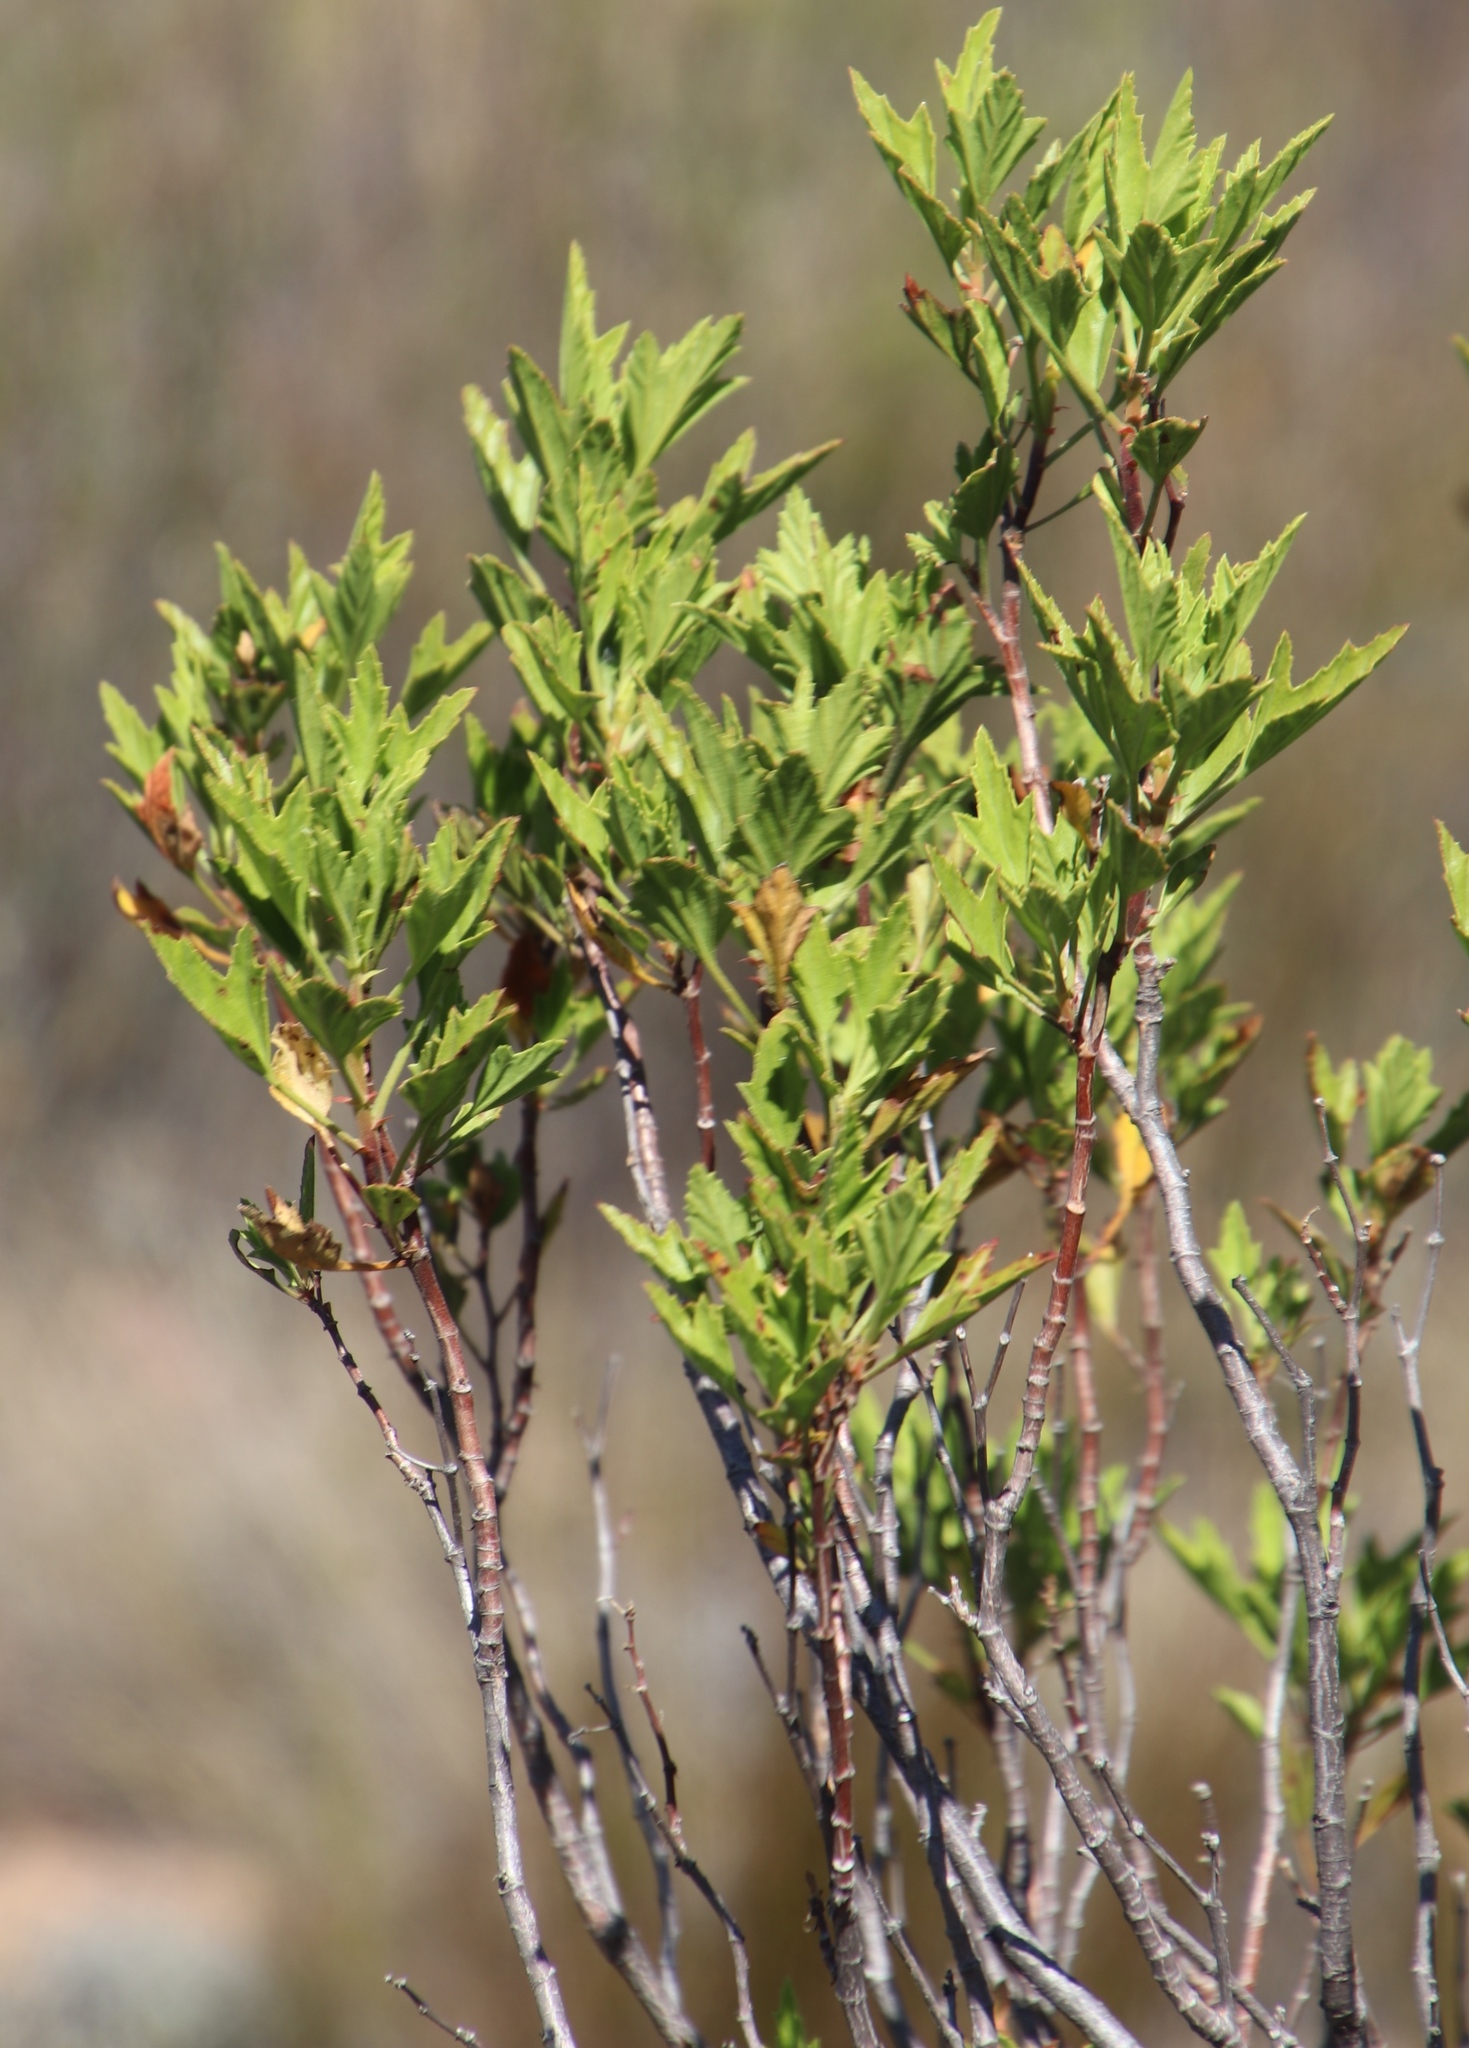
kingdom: Plantae
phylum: Tracheophyta
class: Magnoliopsida
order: Geraniales
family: Geraniaceae
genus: Pelargonium
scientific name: Pelargonium scabrum
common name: Apricot geranium
